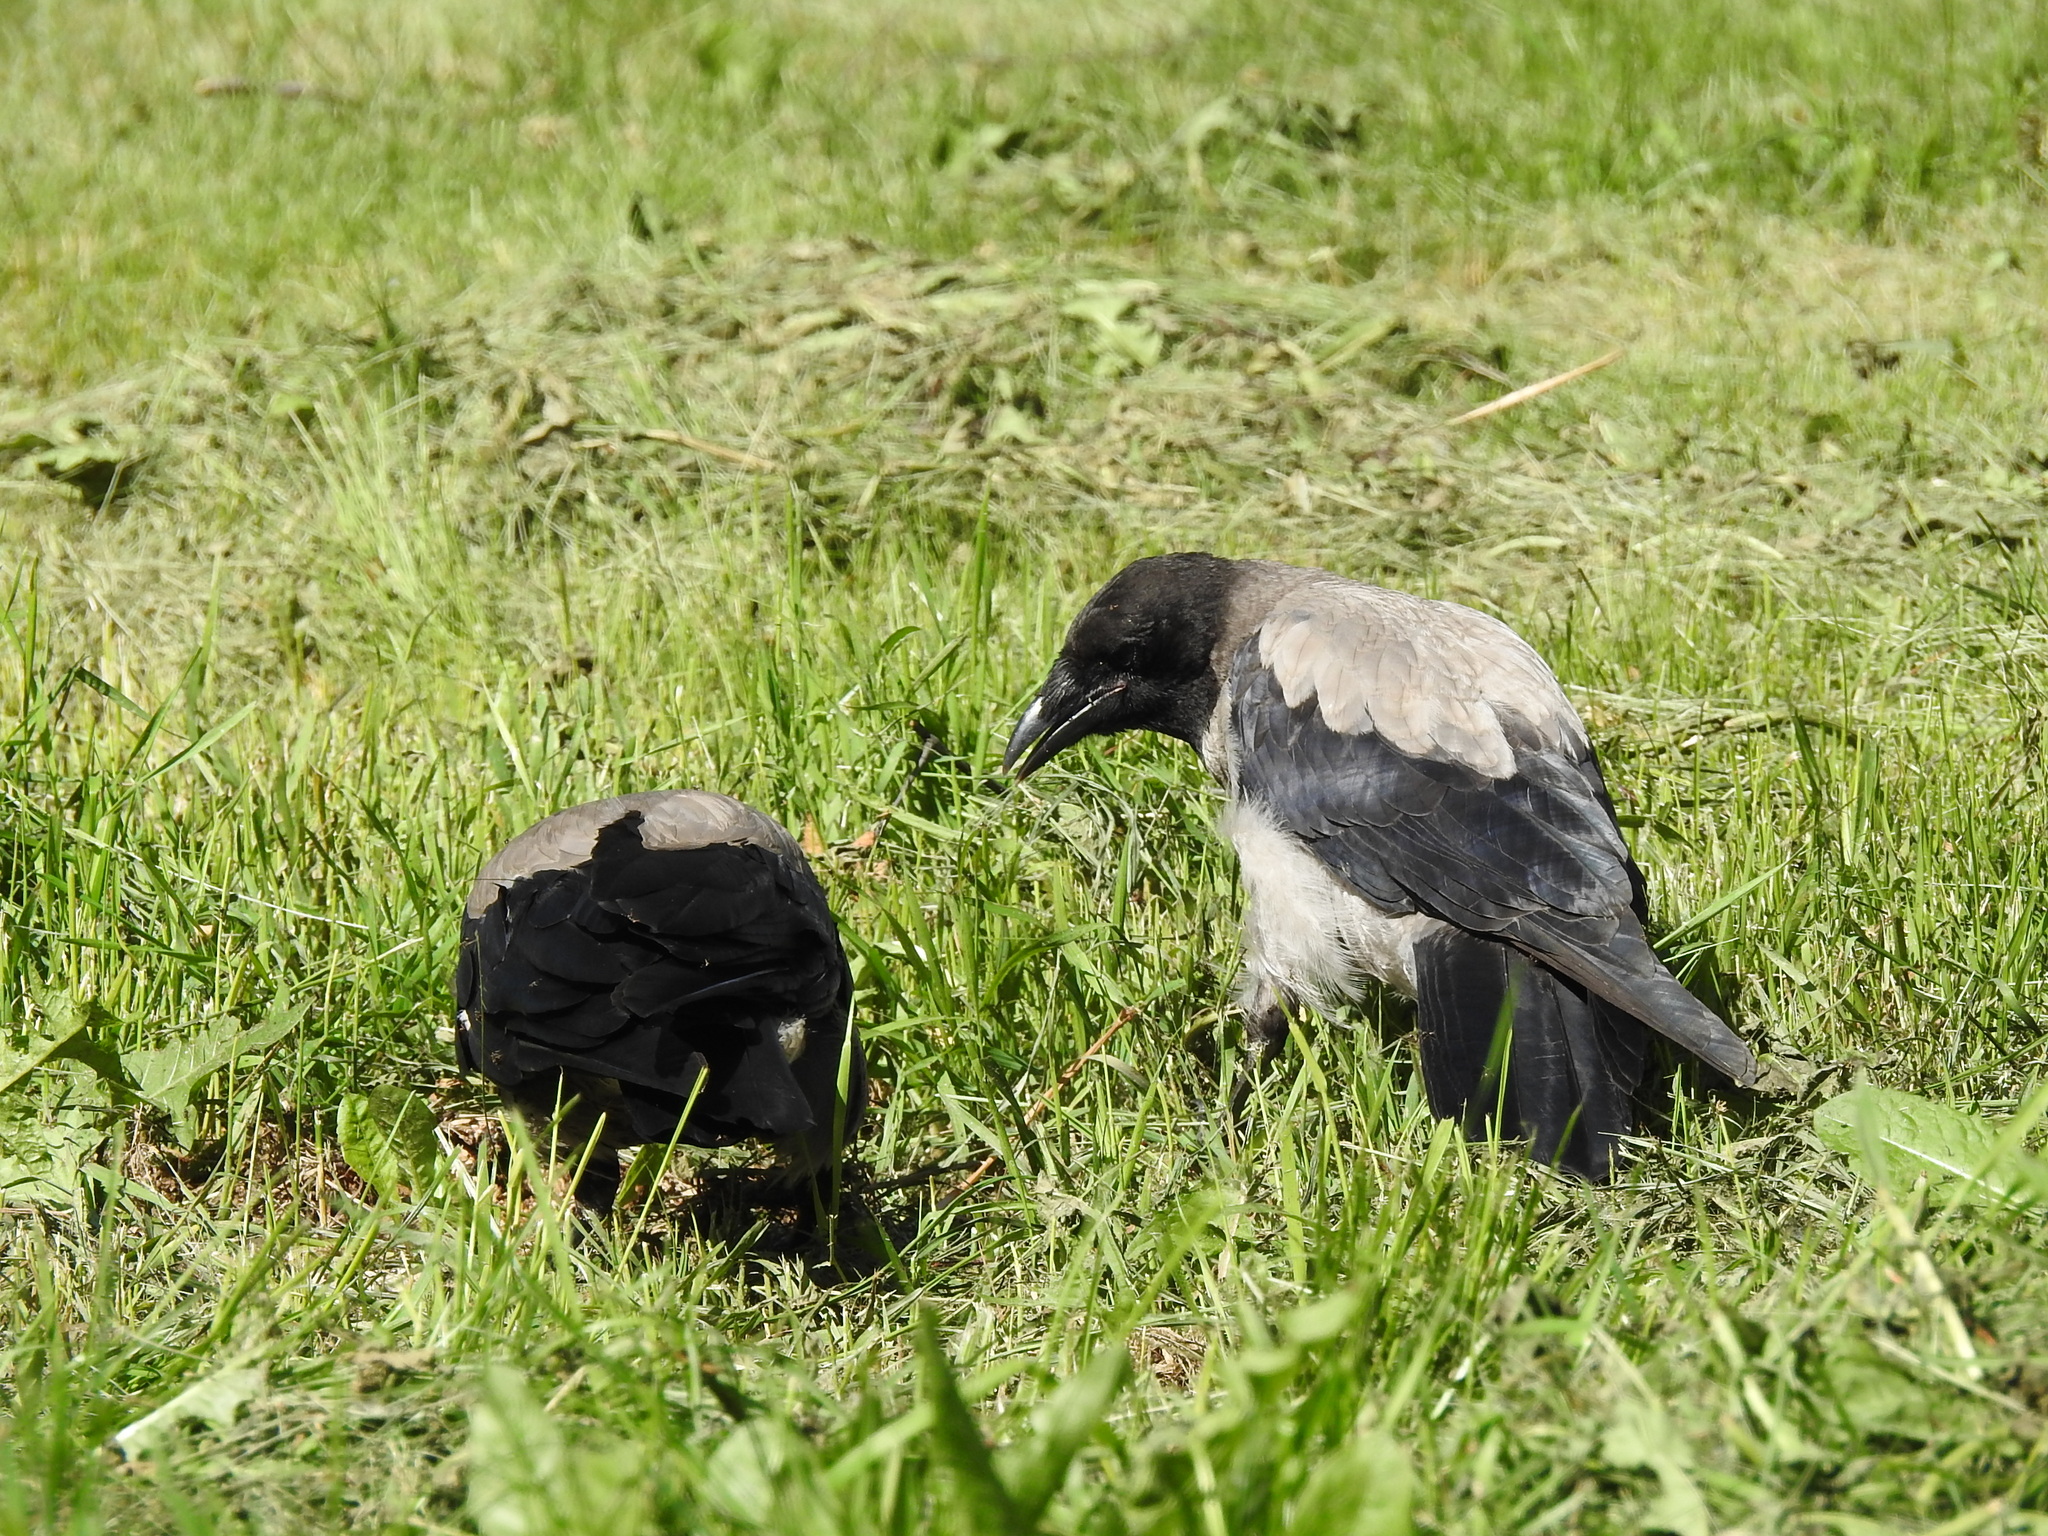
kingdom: Animalia
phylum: Chordata
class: Aves
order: Passeriformes
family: Corvidae
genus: Corvus
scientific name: Corvus cornix
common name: Hooded crow
